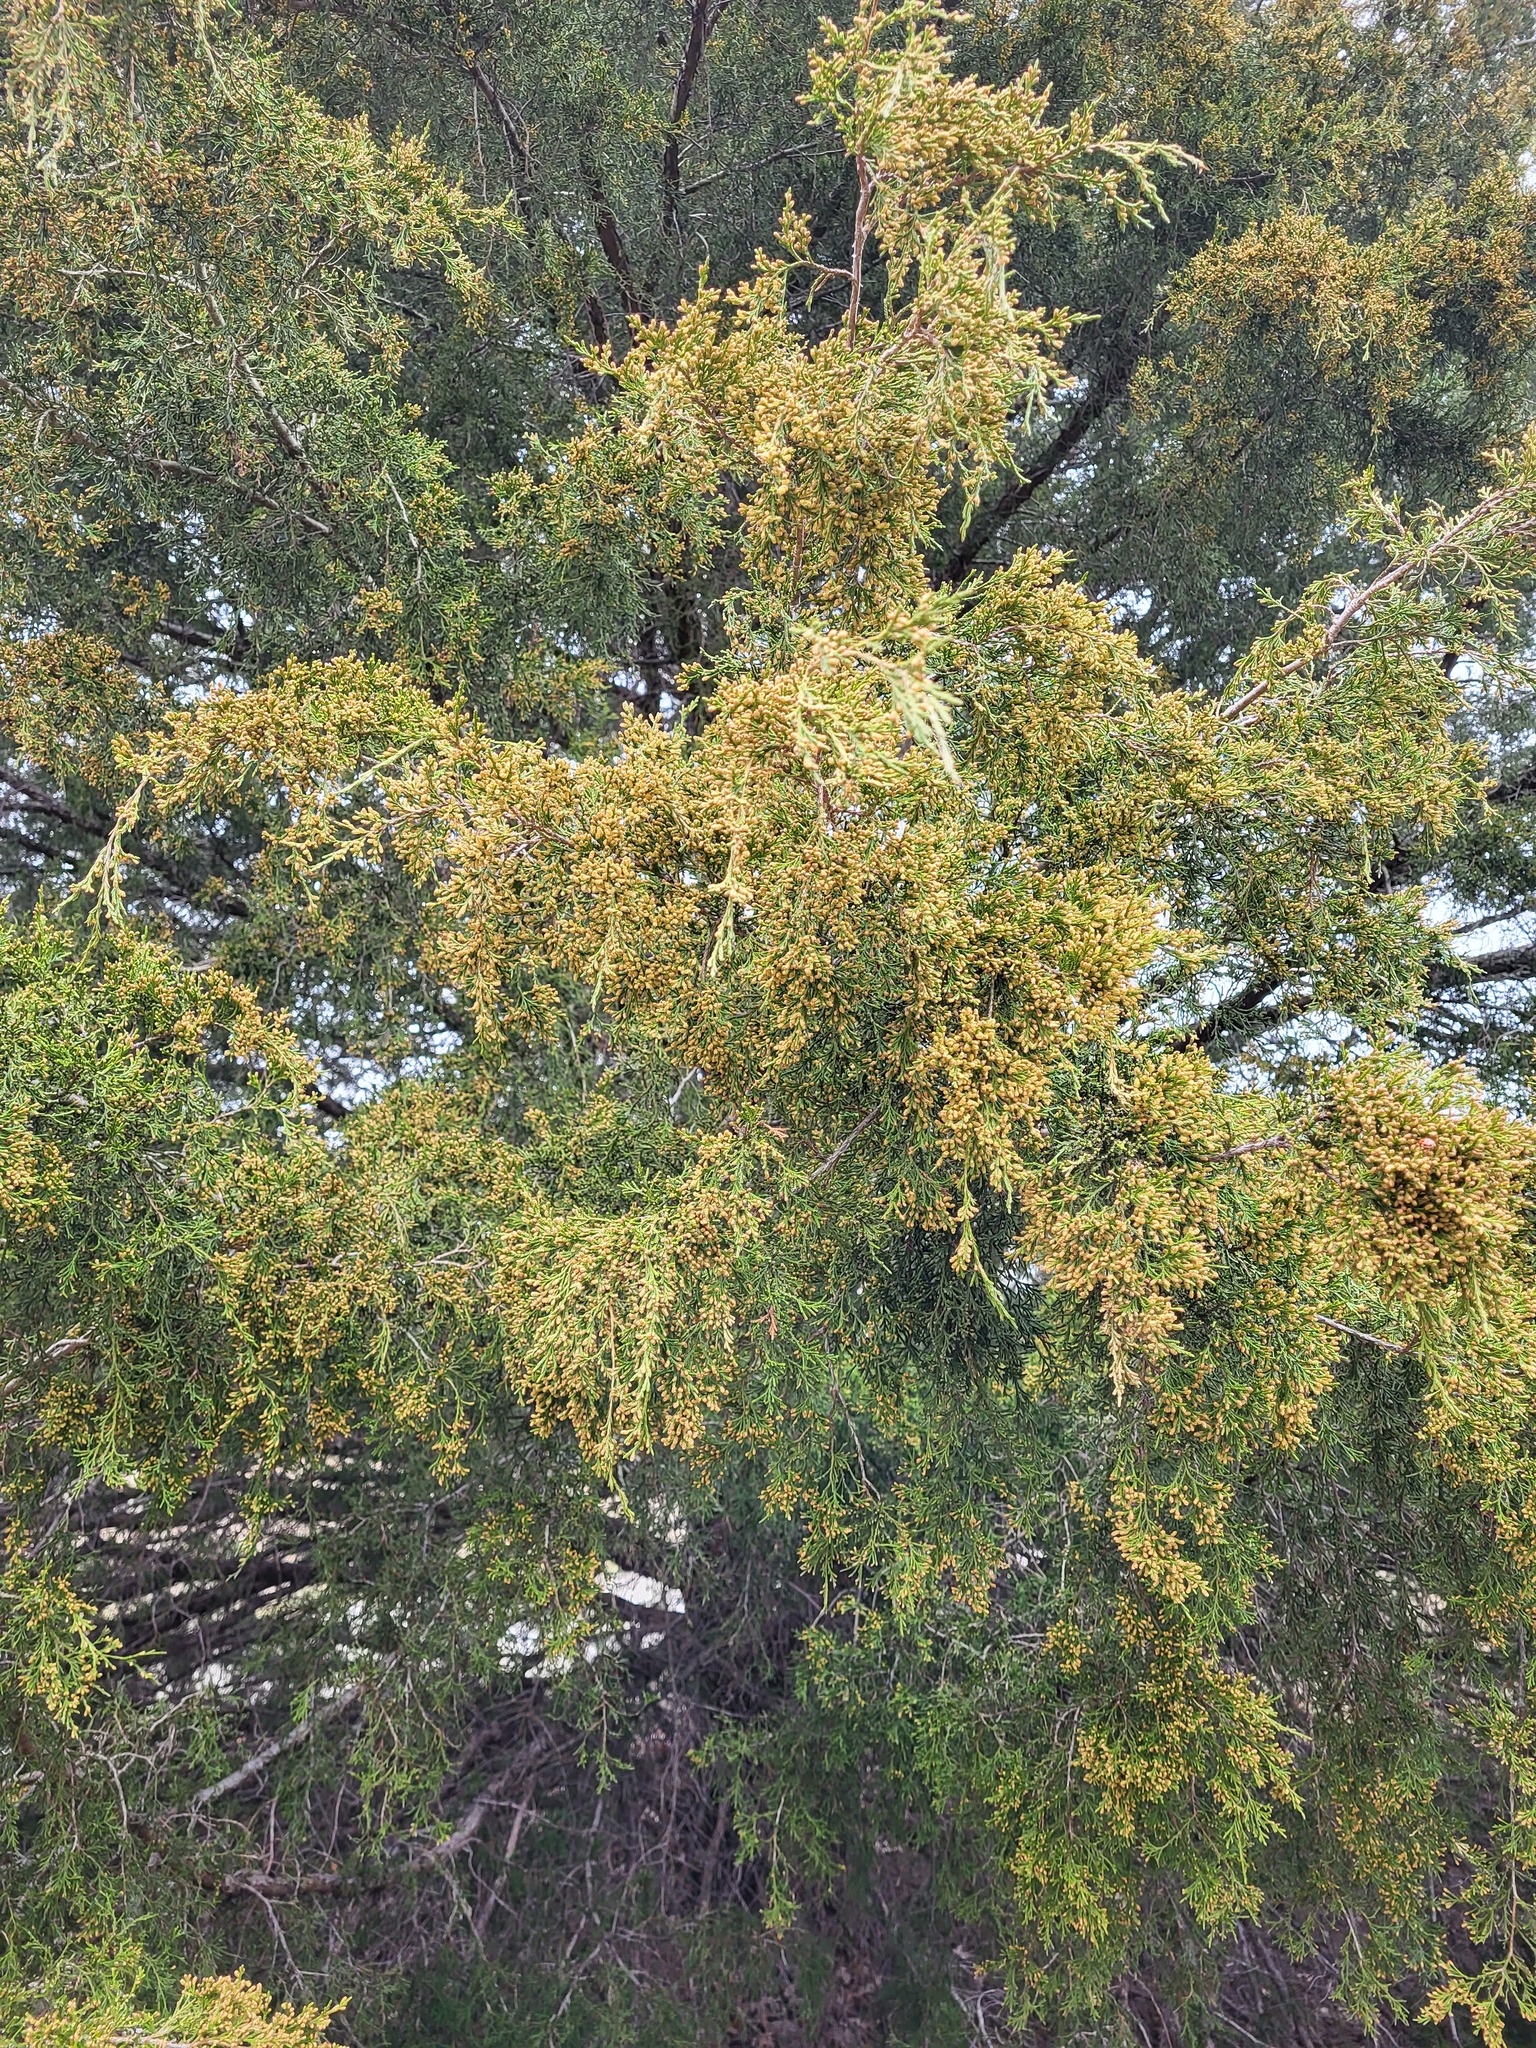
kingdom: Plantae
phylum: Tracheophyta
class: Pinopsida
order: Pinales
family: Cupressaceae
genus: Juniperus
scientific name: Juniperus virginiana
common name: Red juniper
